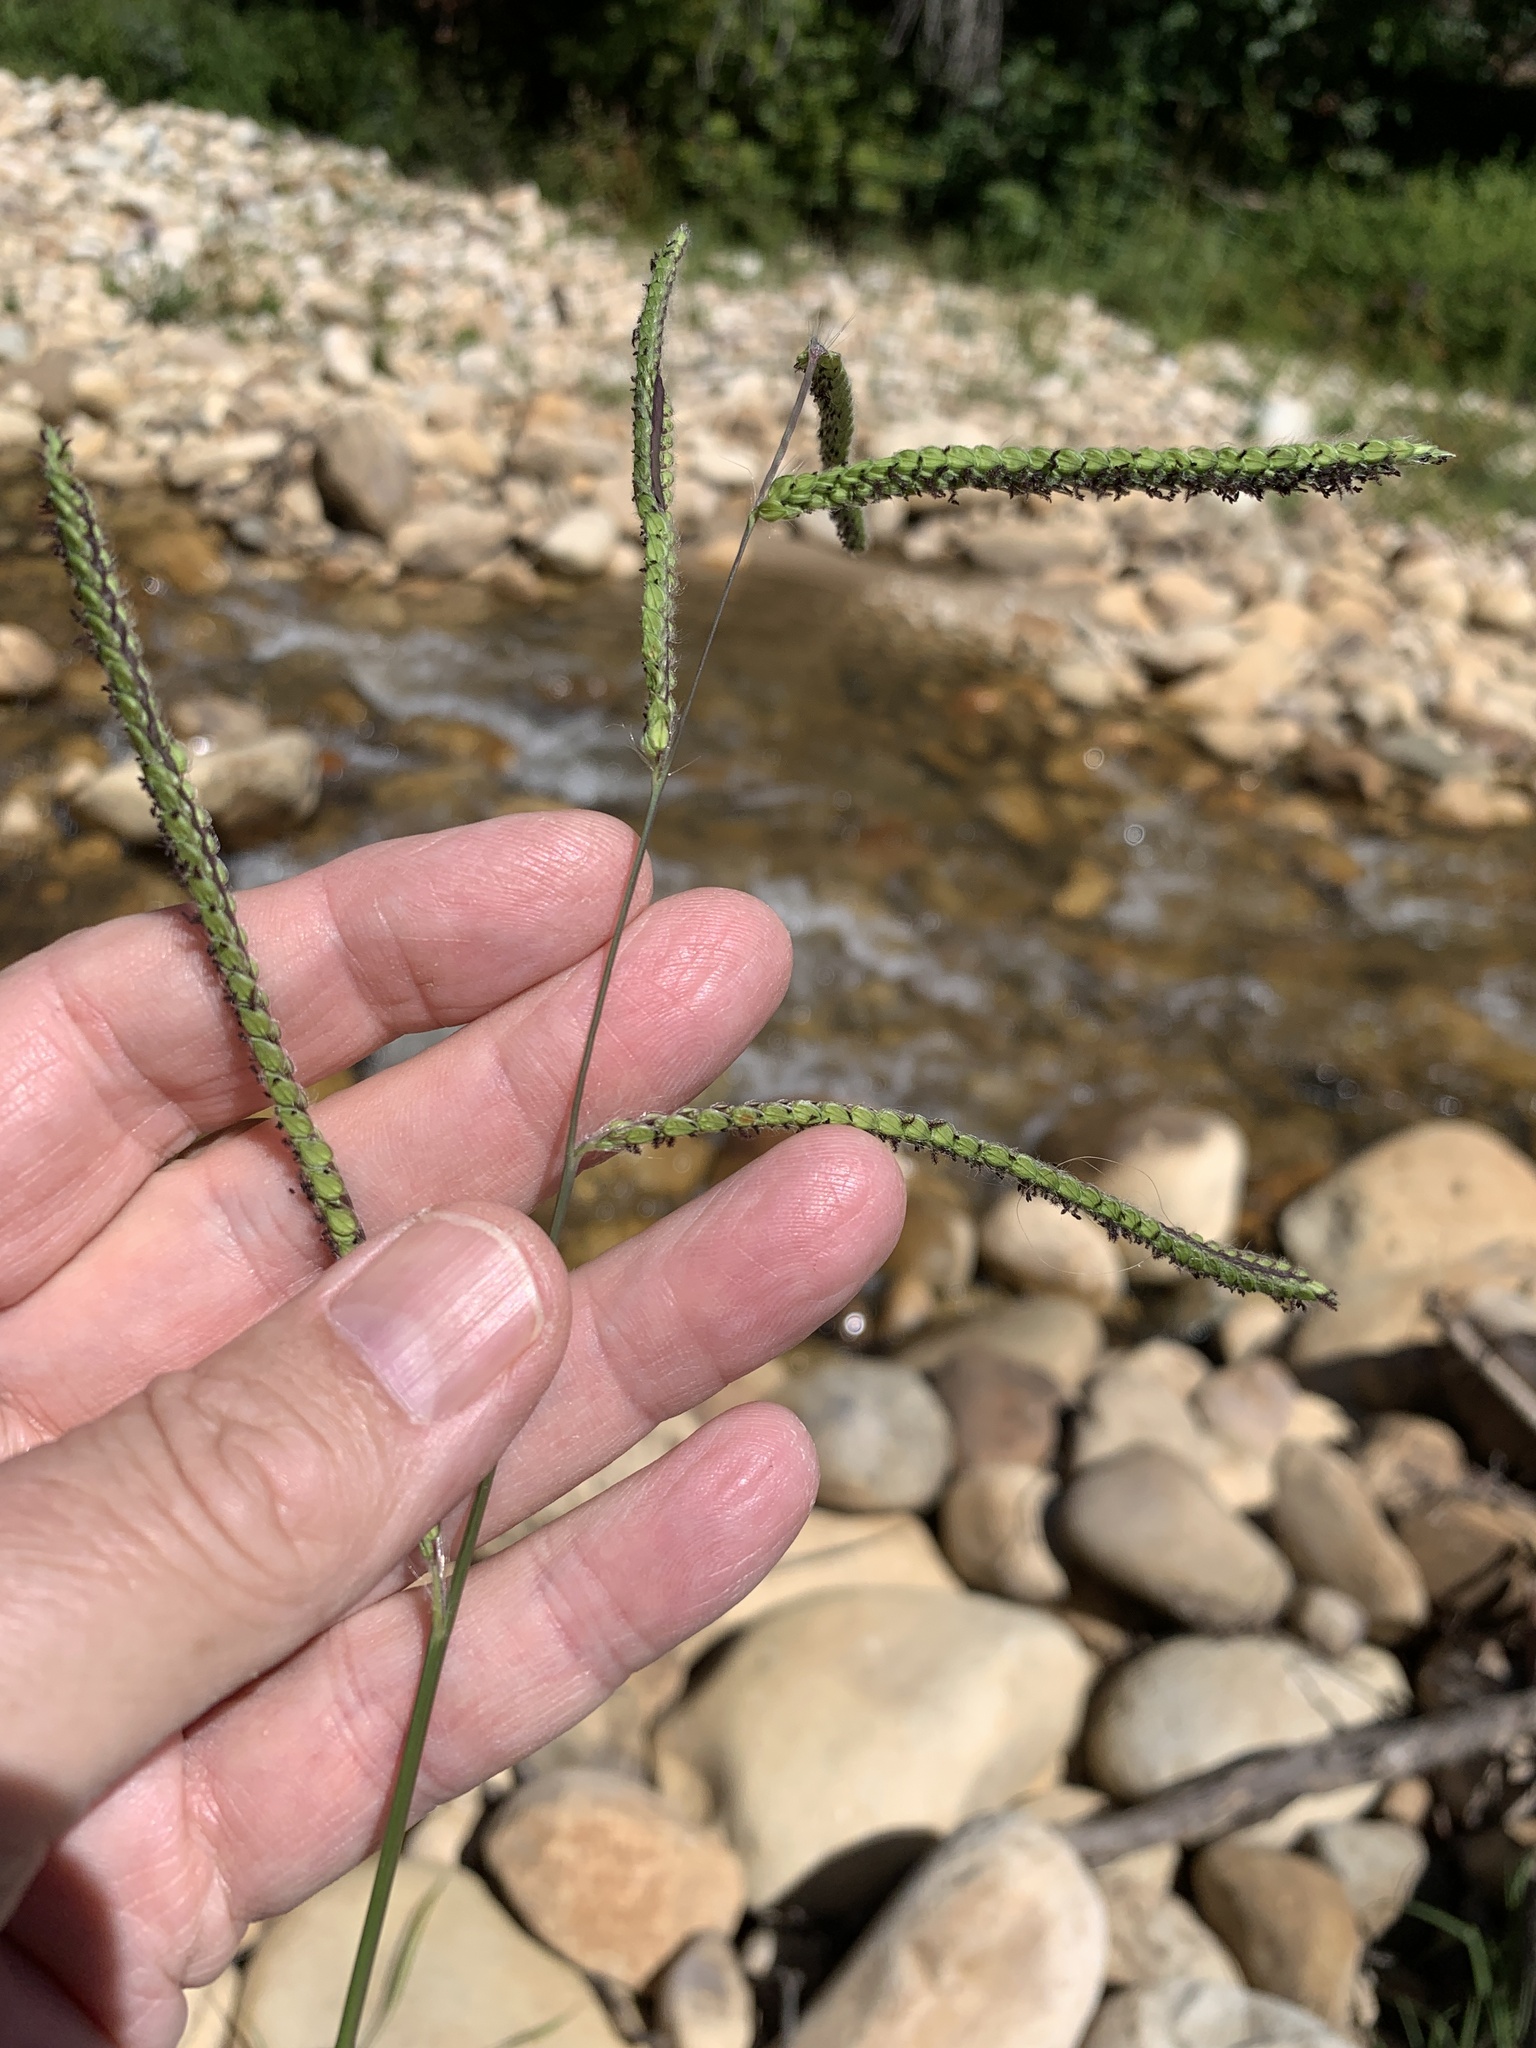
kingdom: Plantae
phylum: Tracheophyta
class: Liliopsida
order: Poales
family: Poaceae
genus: Paspalum
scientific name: Paspalum dilatatum
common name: Dallisgrass
